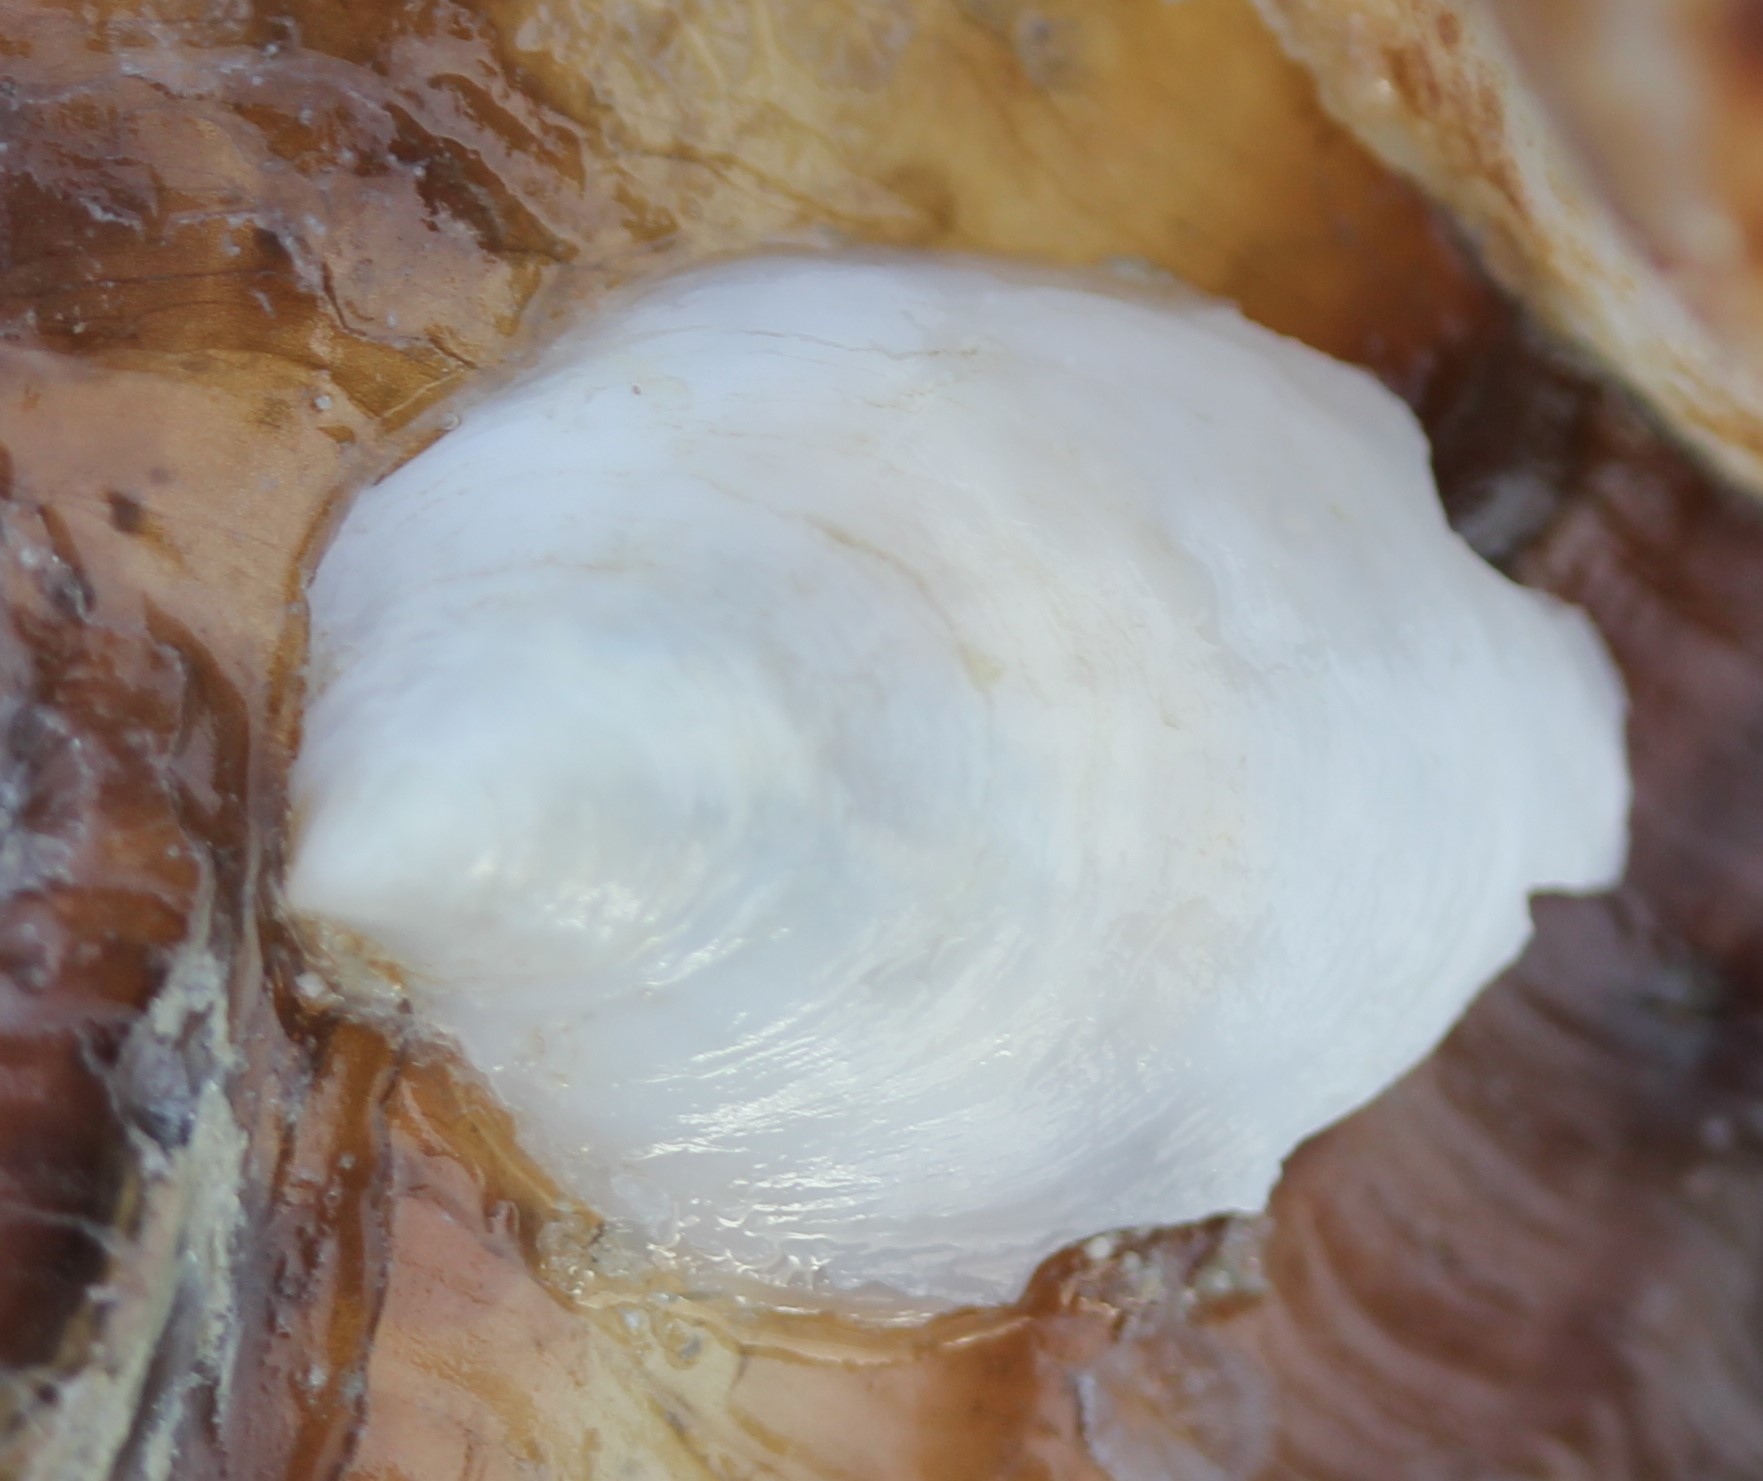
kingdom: Animalia
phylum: Mollusca
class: Gastropoda
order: Littorinimorpha
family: Calyptraeidae
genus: Crepidula
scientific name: Crepidula
